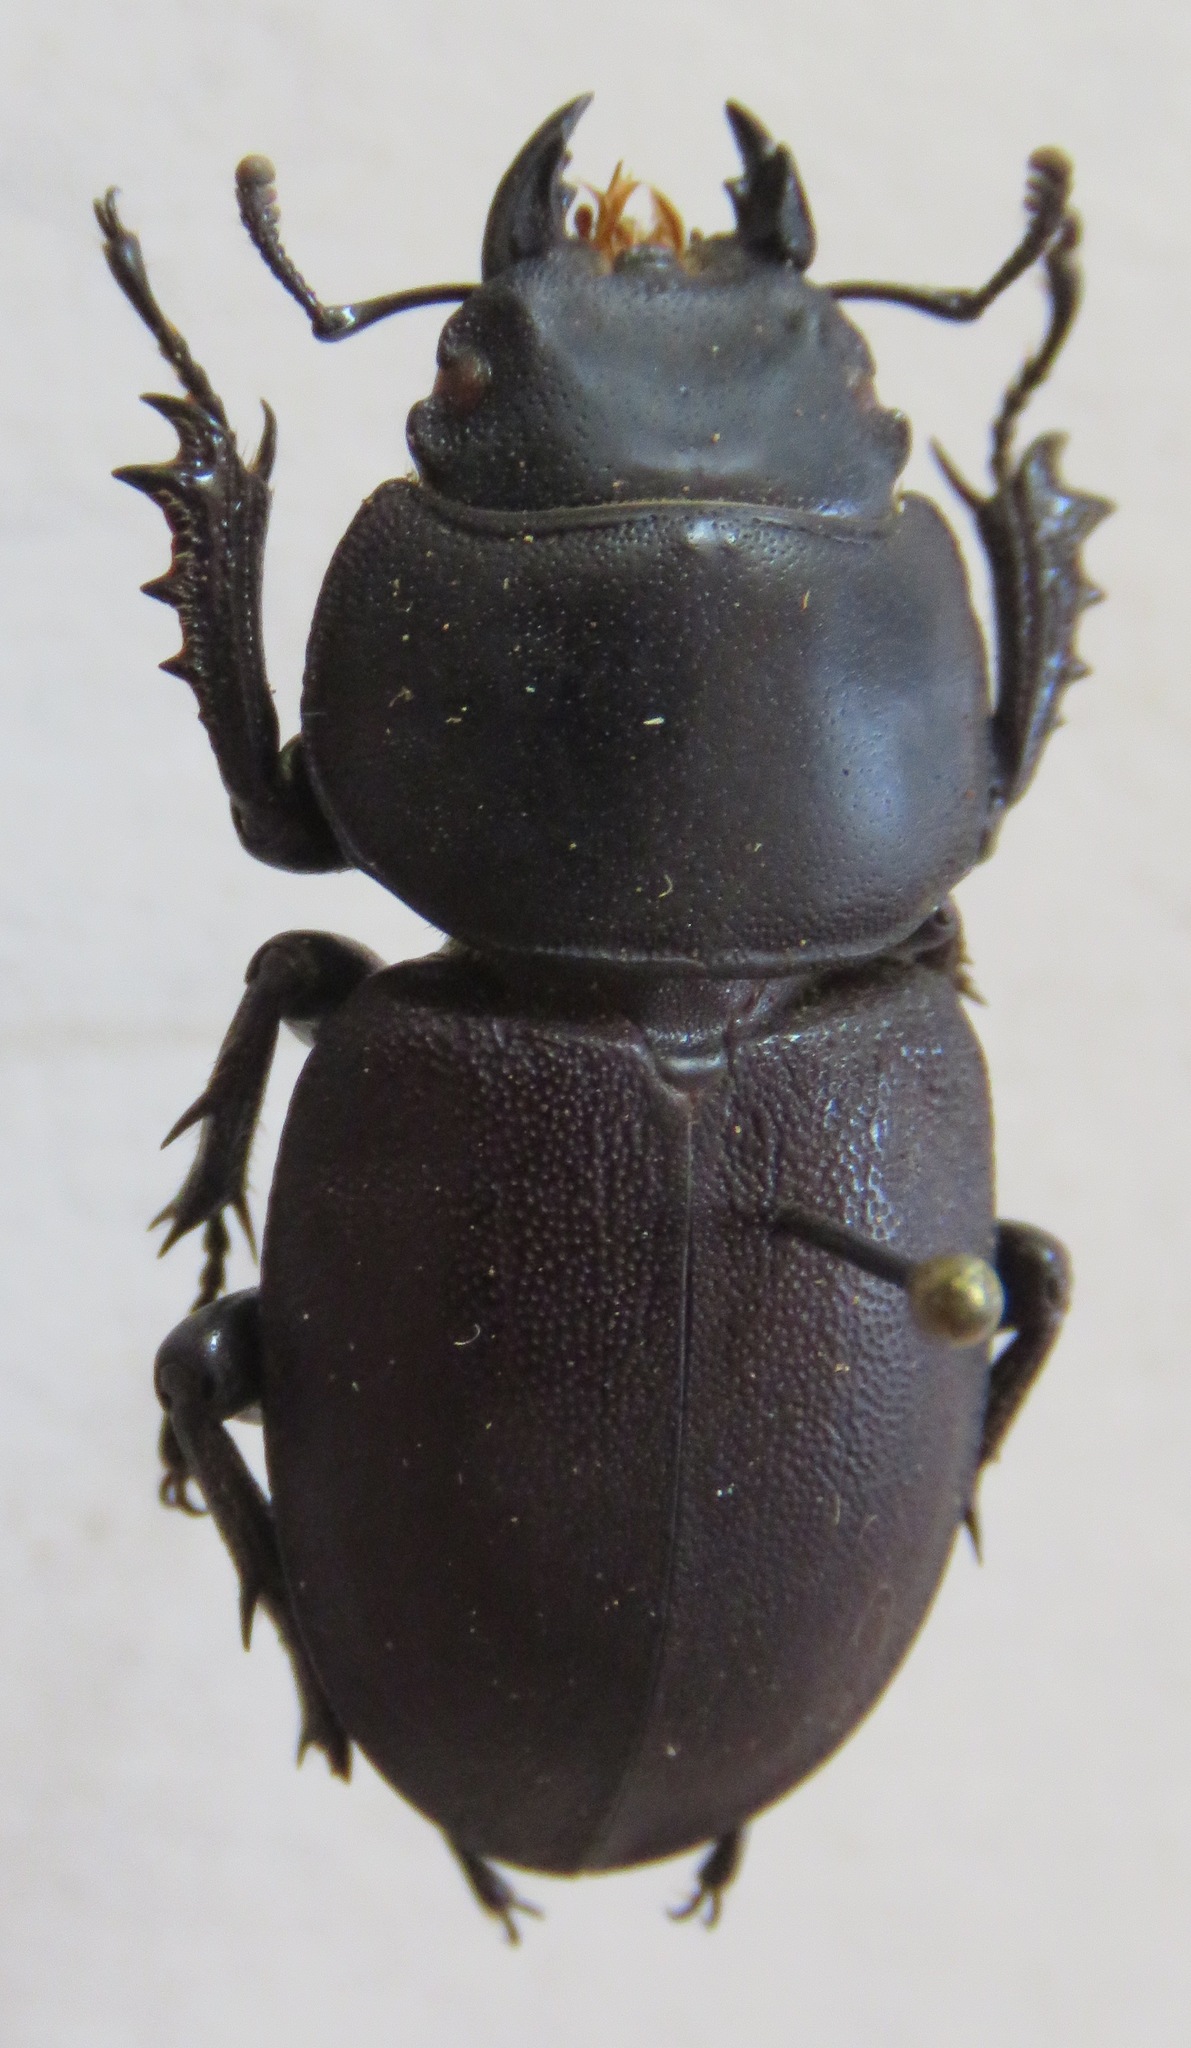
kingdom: Animalia
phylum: Arthropoda
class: Insecta
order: Coleoptera
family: Lucanidae
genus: Apterodorcus
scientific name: Apterodorcus bacchus
